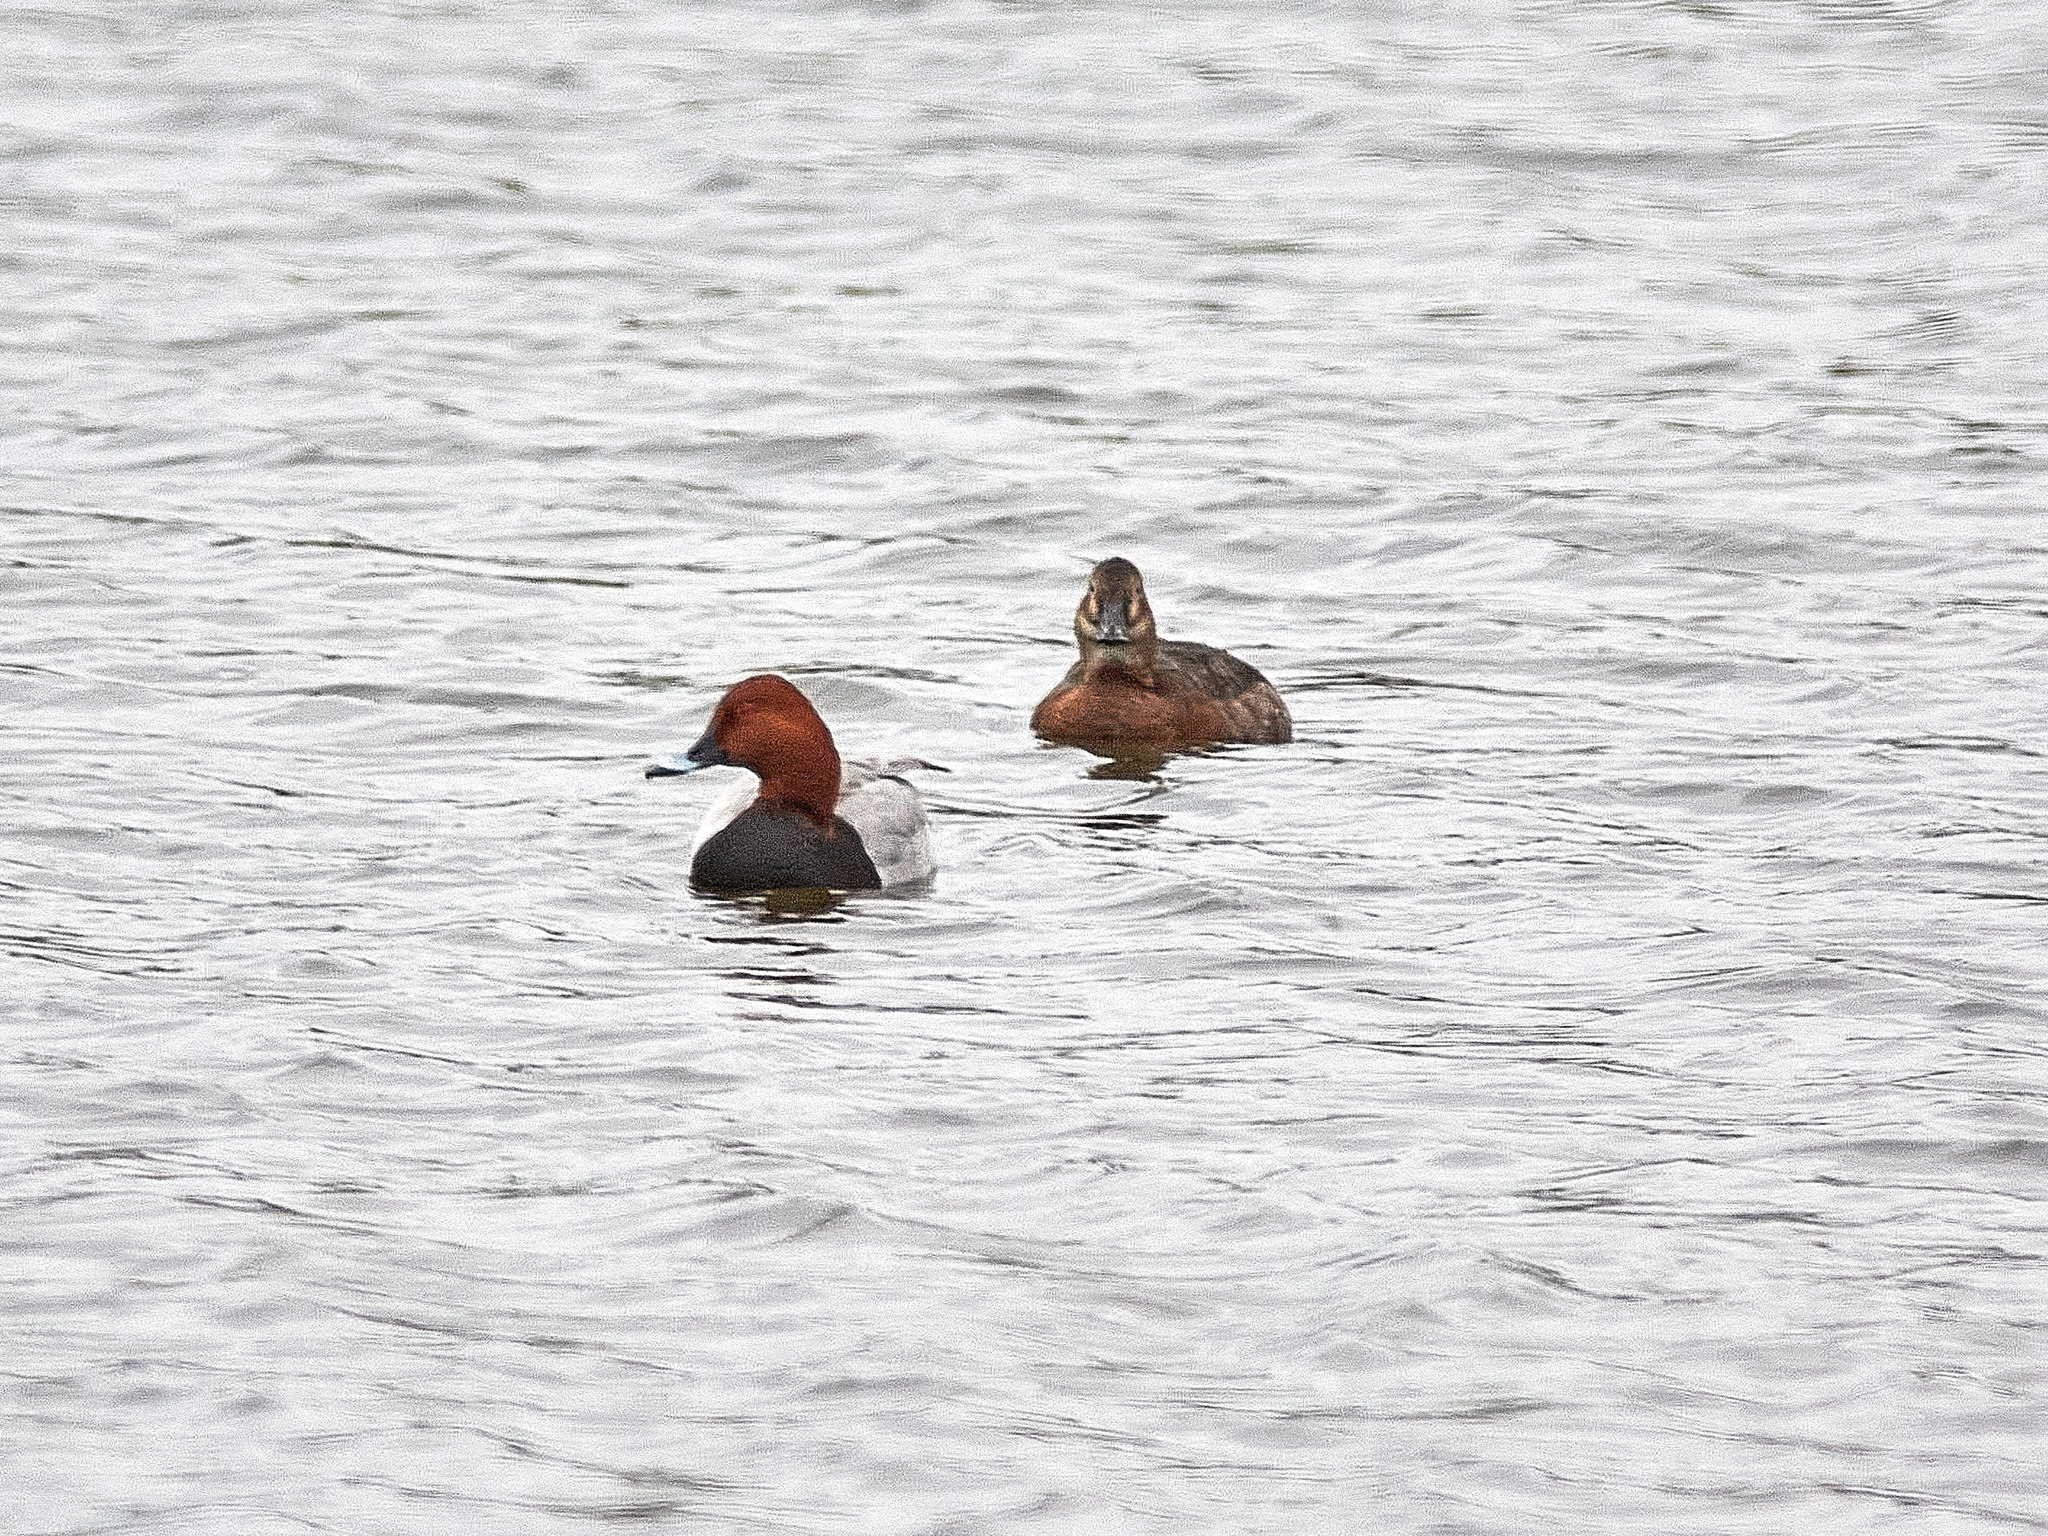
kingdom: Animalia
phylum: Chordata
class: Aves
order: Anseriformes
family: Anatidae
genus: Aythya
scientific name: Aythya ferina
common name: Common pochard
